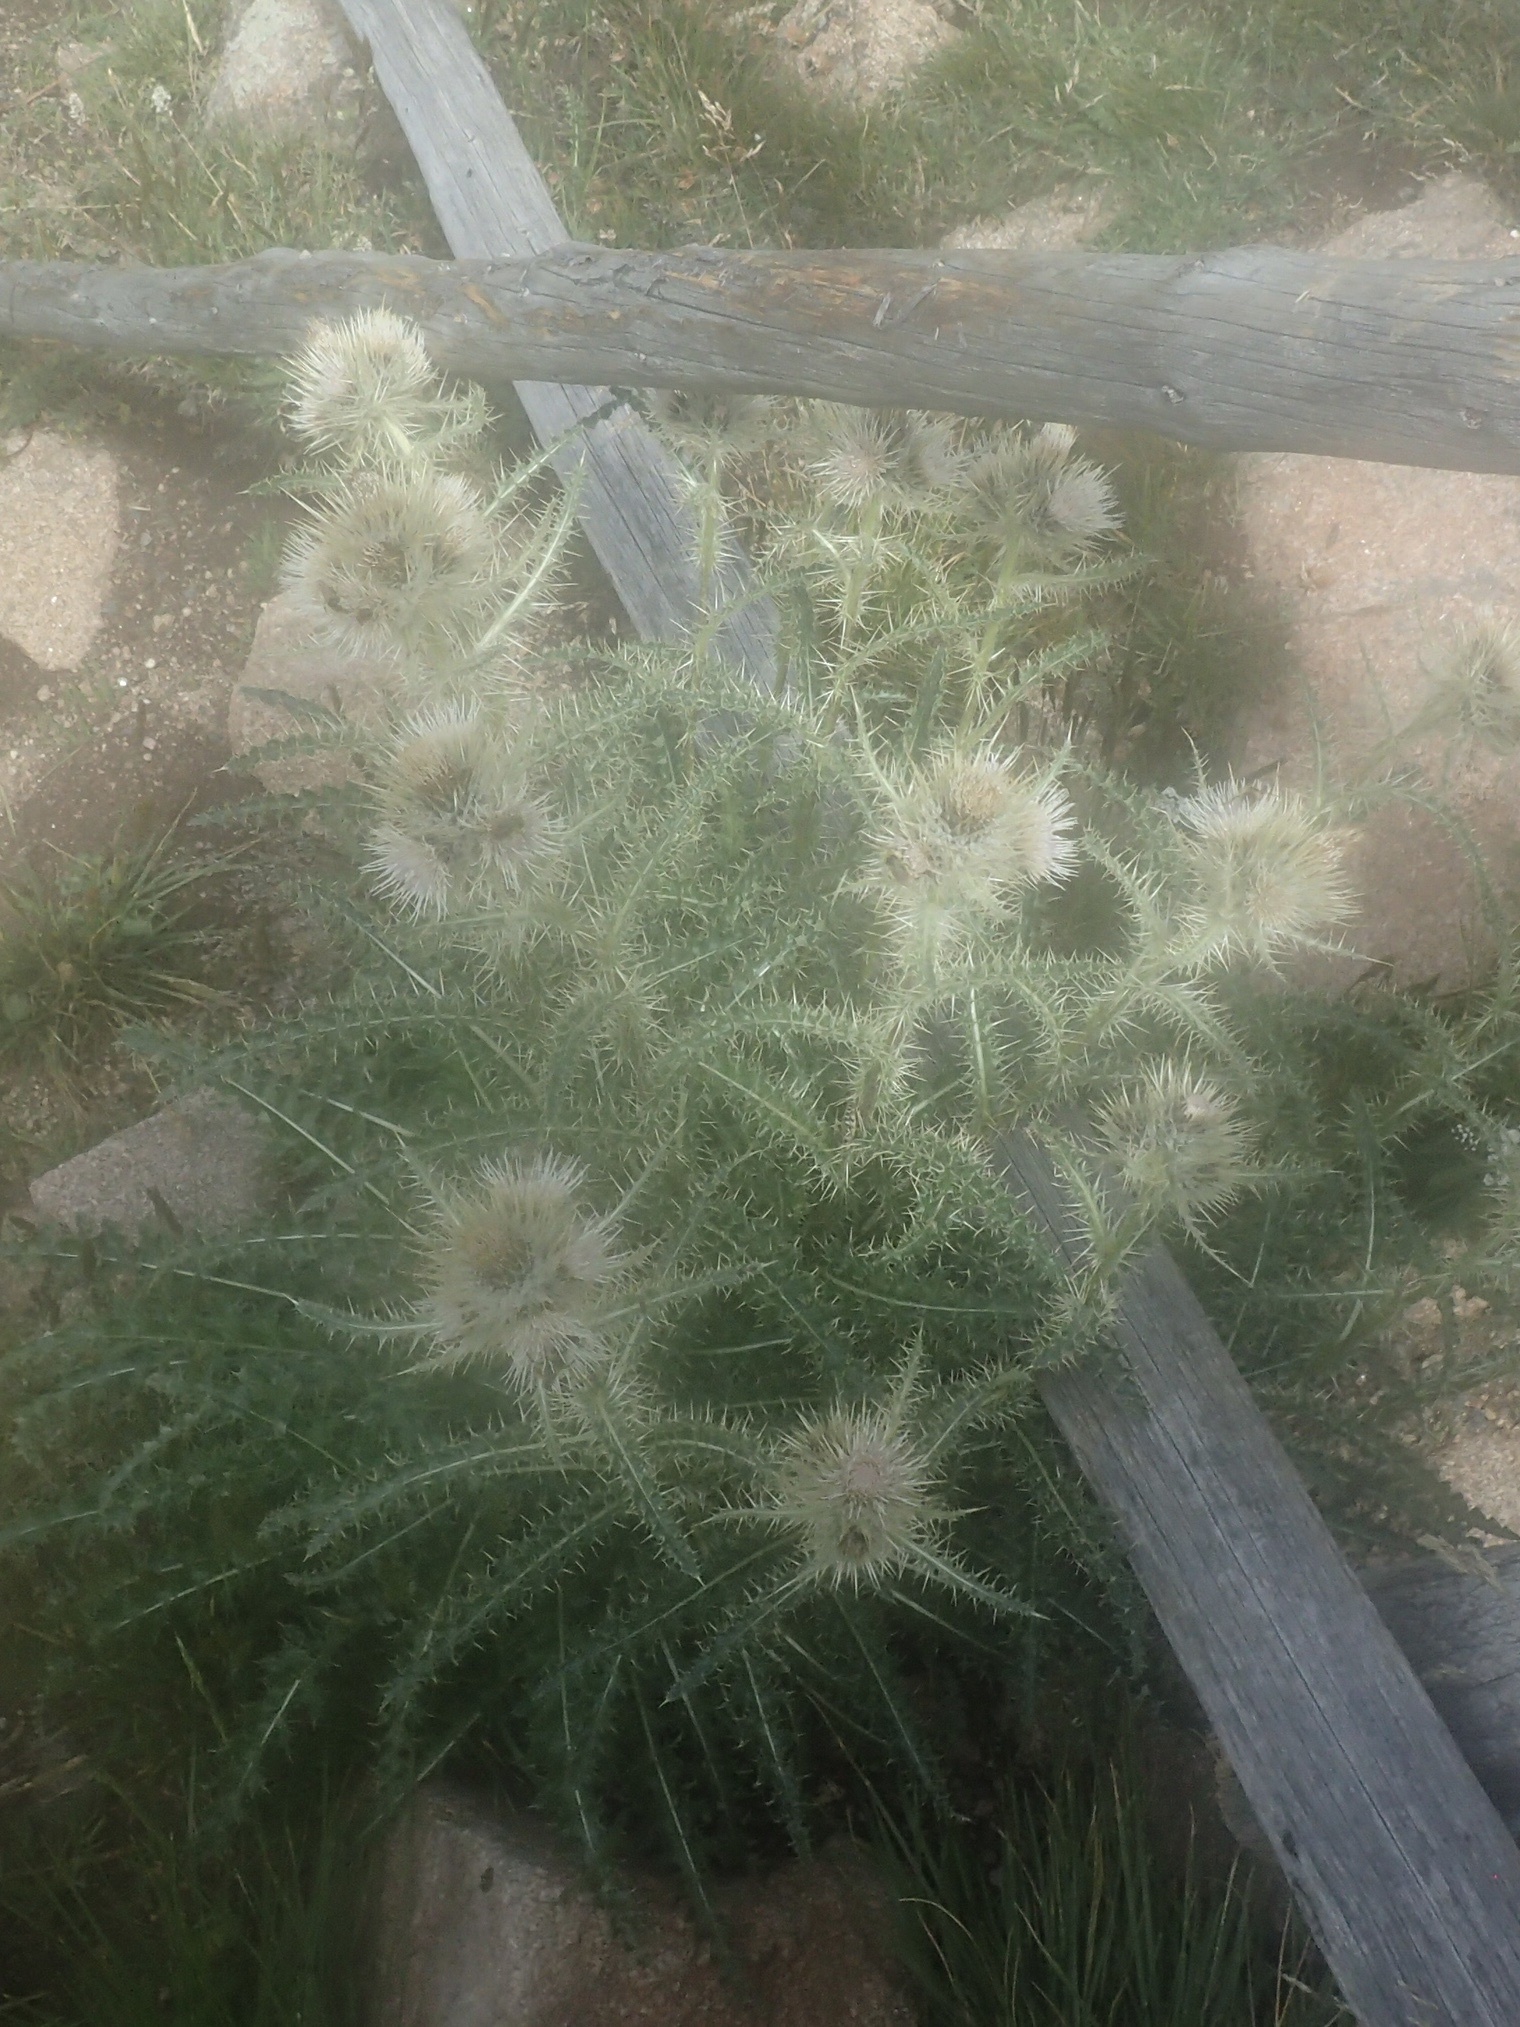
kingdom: Plantae
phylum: Tracheophyta
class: Magnoliopsida
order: Asterales
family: Asteraceae
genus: Cirsium
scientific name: Cirsium scopulorum
